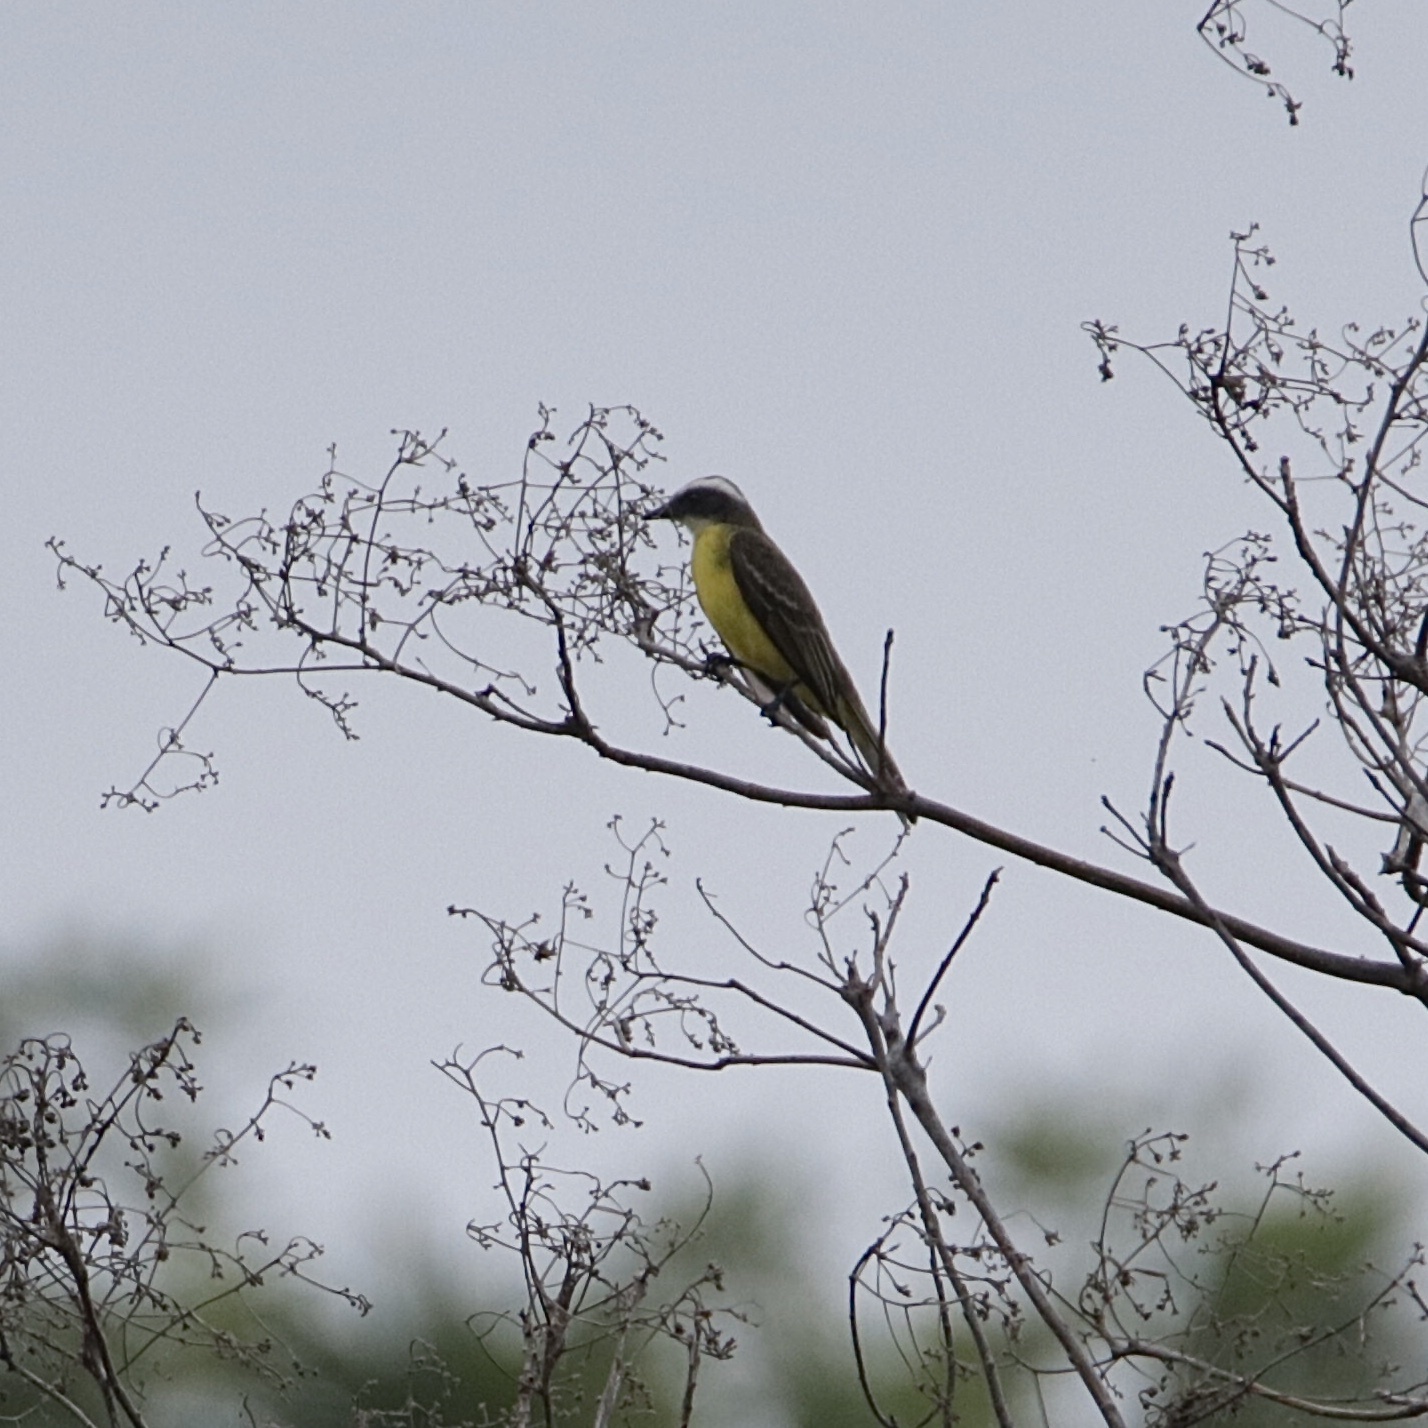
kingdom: Animalia
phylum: Chordata
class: Aves
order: Passeriformes
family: Tyrannidae
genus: Myiozetetes
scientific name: Myiozetetes similis
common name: Social flycatcher
